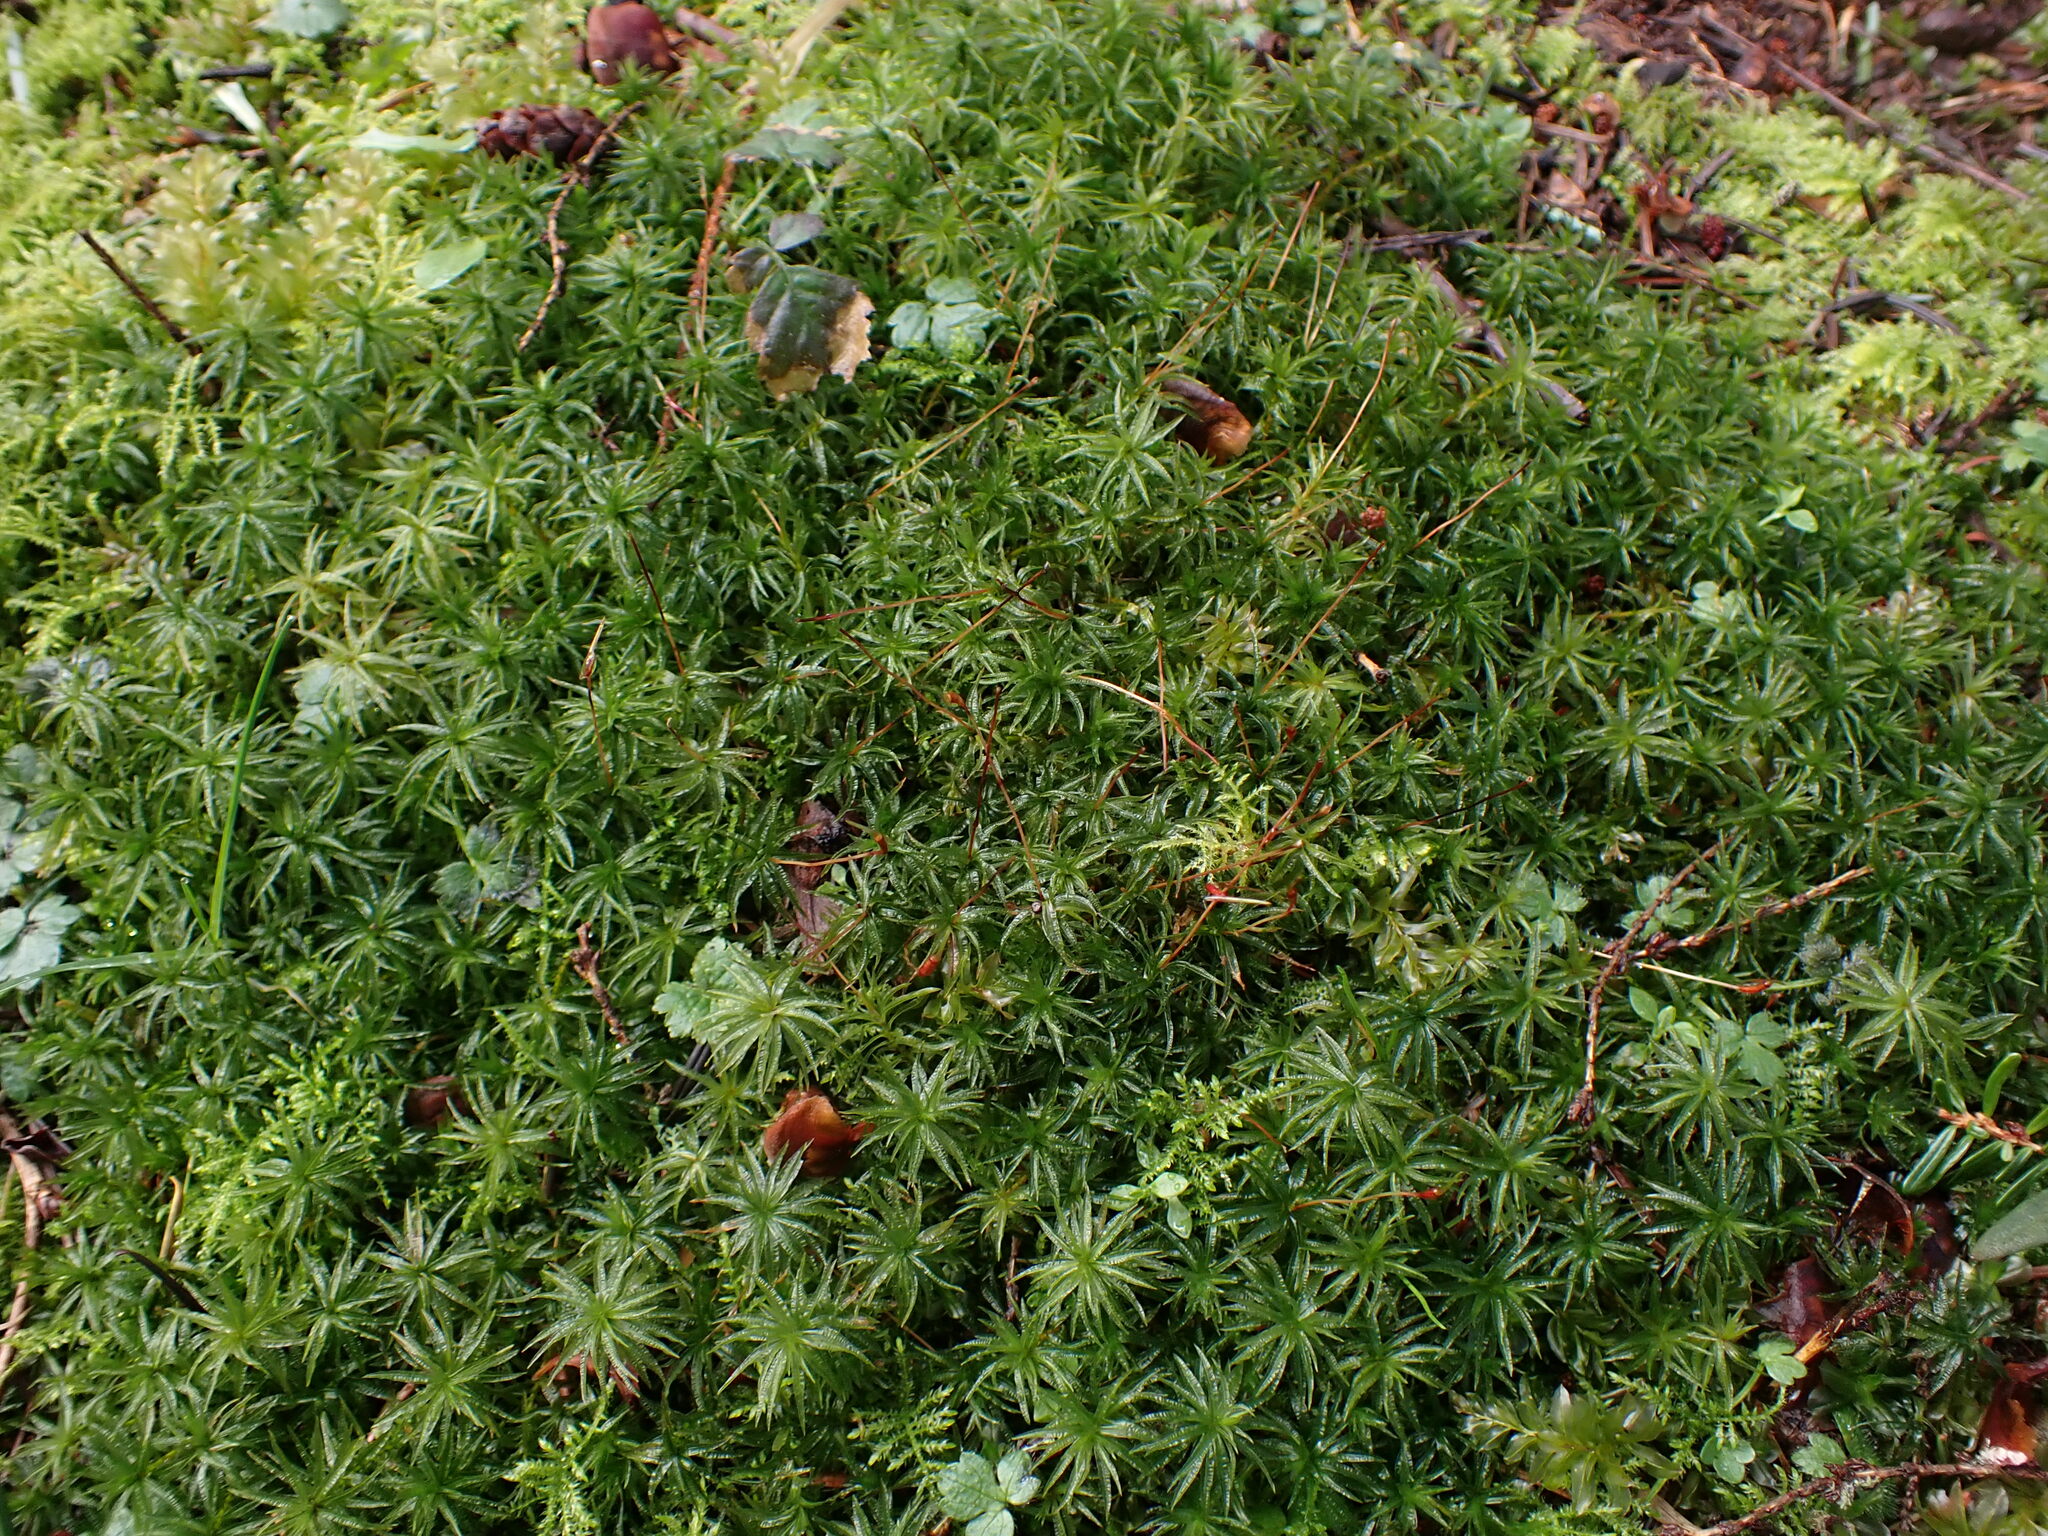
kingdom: Plantae
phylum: Bryophyta
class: Polytrichopsida
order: Polytrichales
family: Polytrichaceae
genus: Atrichum
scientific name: Atrichum undulatum
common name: Common smoothcap
